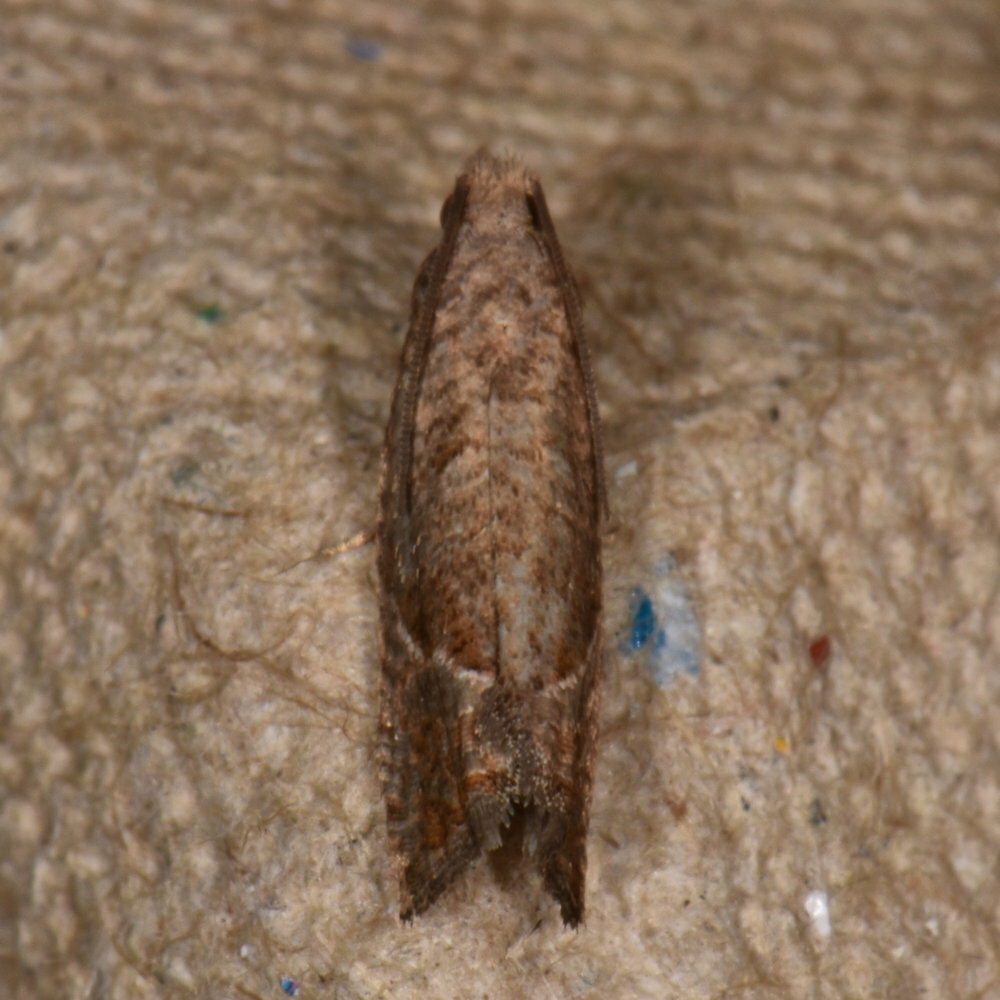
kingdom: Animalia
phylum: Arthropoda
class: Insecta
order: Lepidoptera
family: Tortricidae
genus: Pelochrista
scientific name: Pelochrista derelicta
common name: Derelict pelochrista moth
